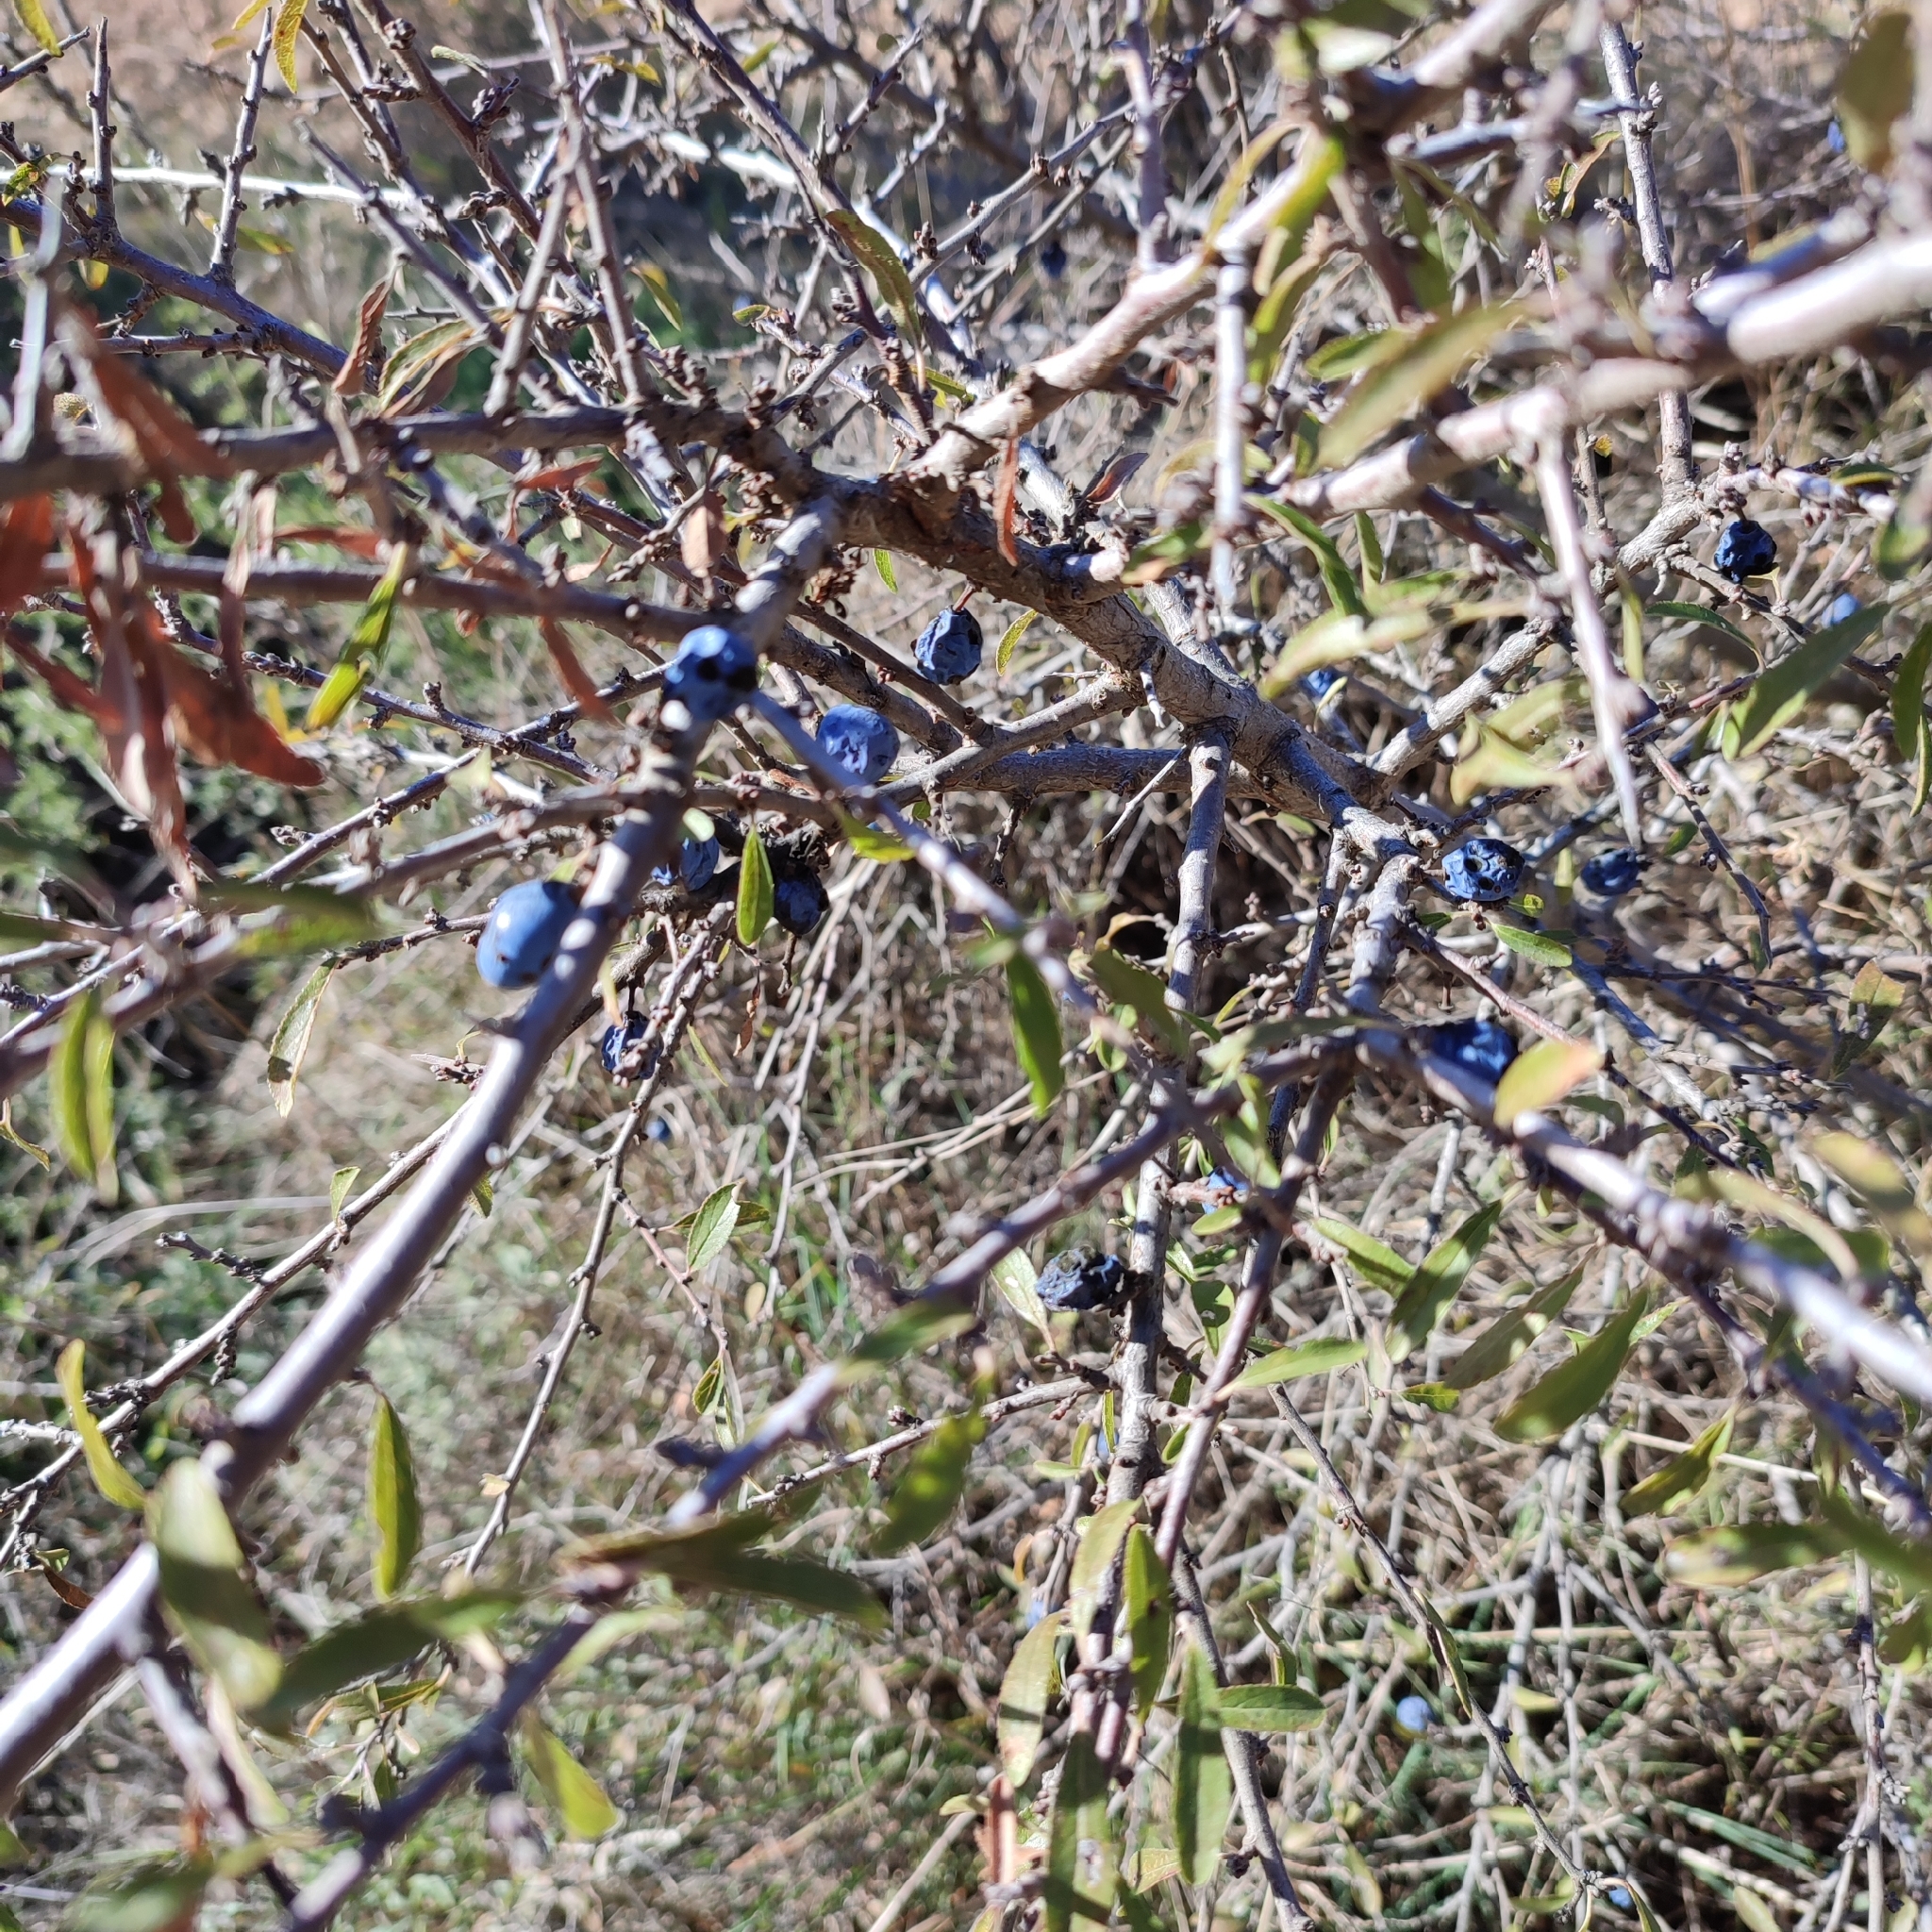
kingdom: Plantae
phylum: Tracheophyta
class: Magnoliopsida
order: Rosales
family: Rosaceae
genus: Prunus
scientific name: Prunus spinosa
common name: Blackthorn
